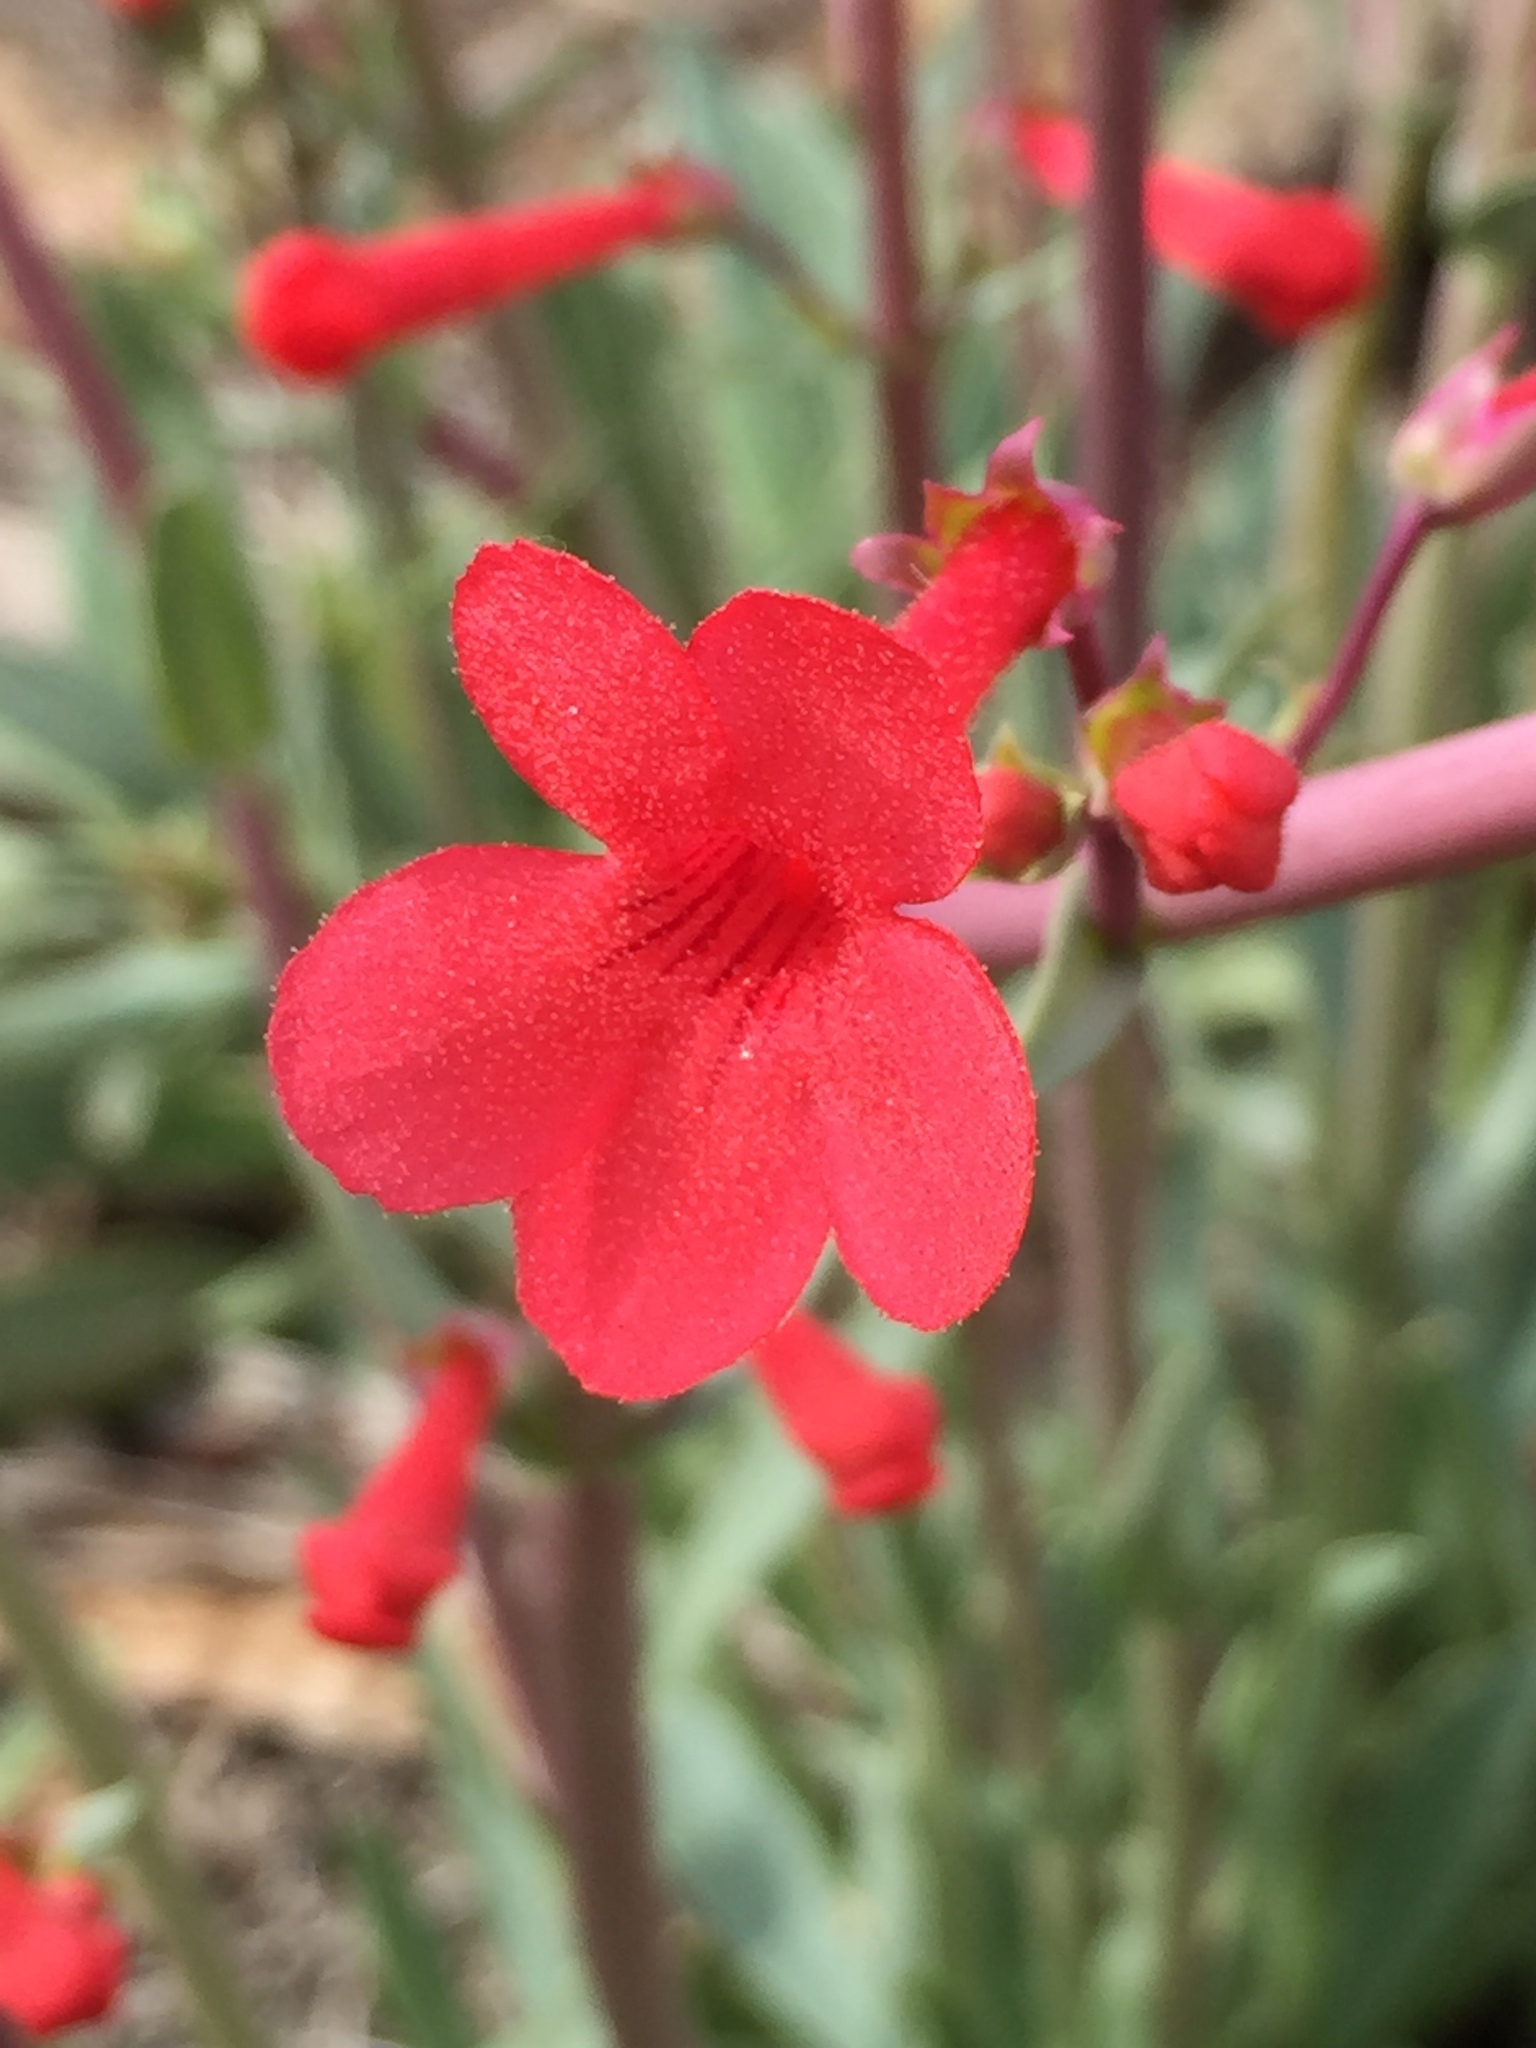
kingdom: Plantae
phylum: Tracheophyta
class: Magnoliopsida
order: Lamiales
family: Plantaginaceae
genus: Penstemon
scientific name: Penstemon utahensis
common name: Utah penstemon
